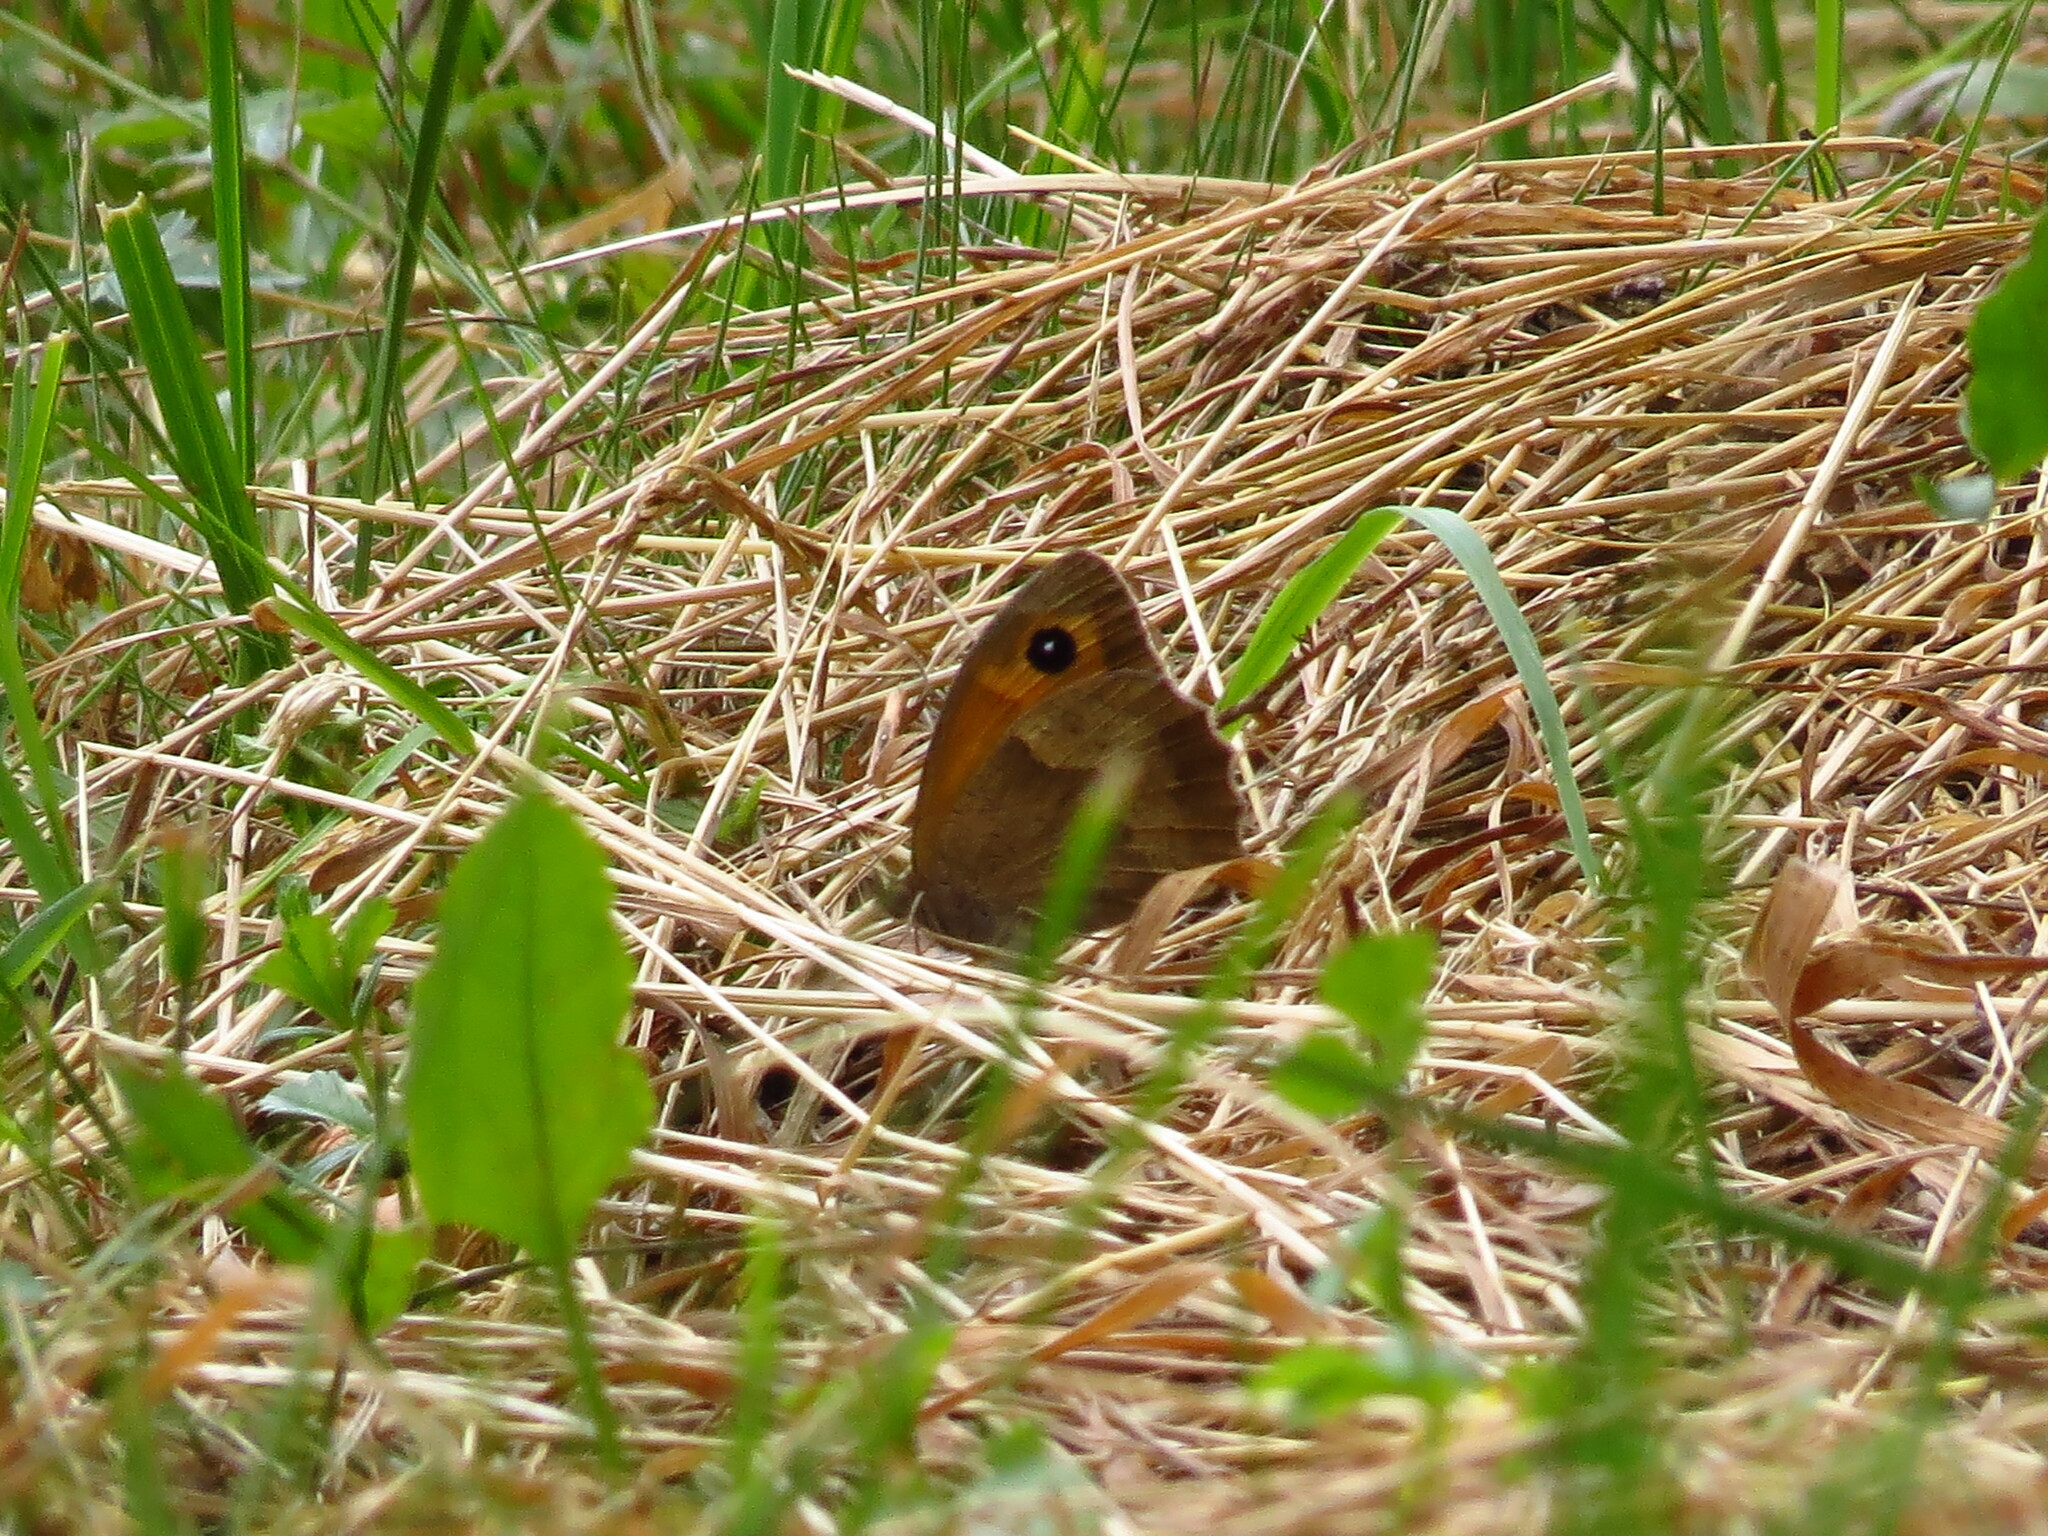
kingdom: Animalia
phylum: Arthropoda
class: Insecta
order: Lepidoptera
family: Nymphalidae
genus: Maniola
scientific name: Maniola jurtina
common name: Meadow brown
